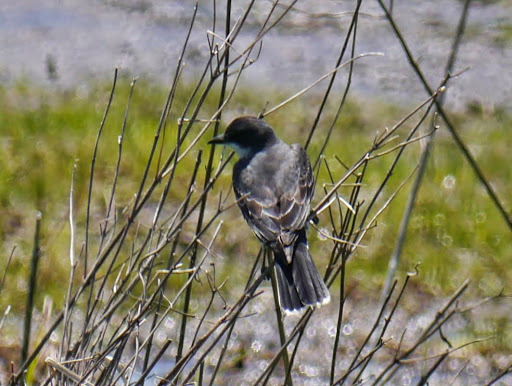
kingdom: Animalia
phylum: Chordata
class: Aves
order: Passeriformes
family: Tyrannidae
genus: Tyrannus
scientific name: Tyrannus tyrannus
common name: Eastern kingbird
